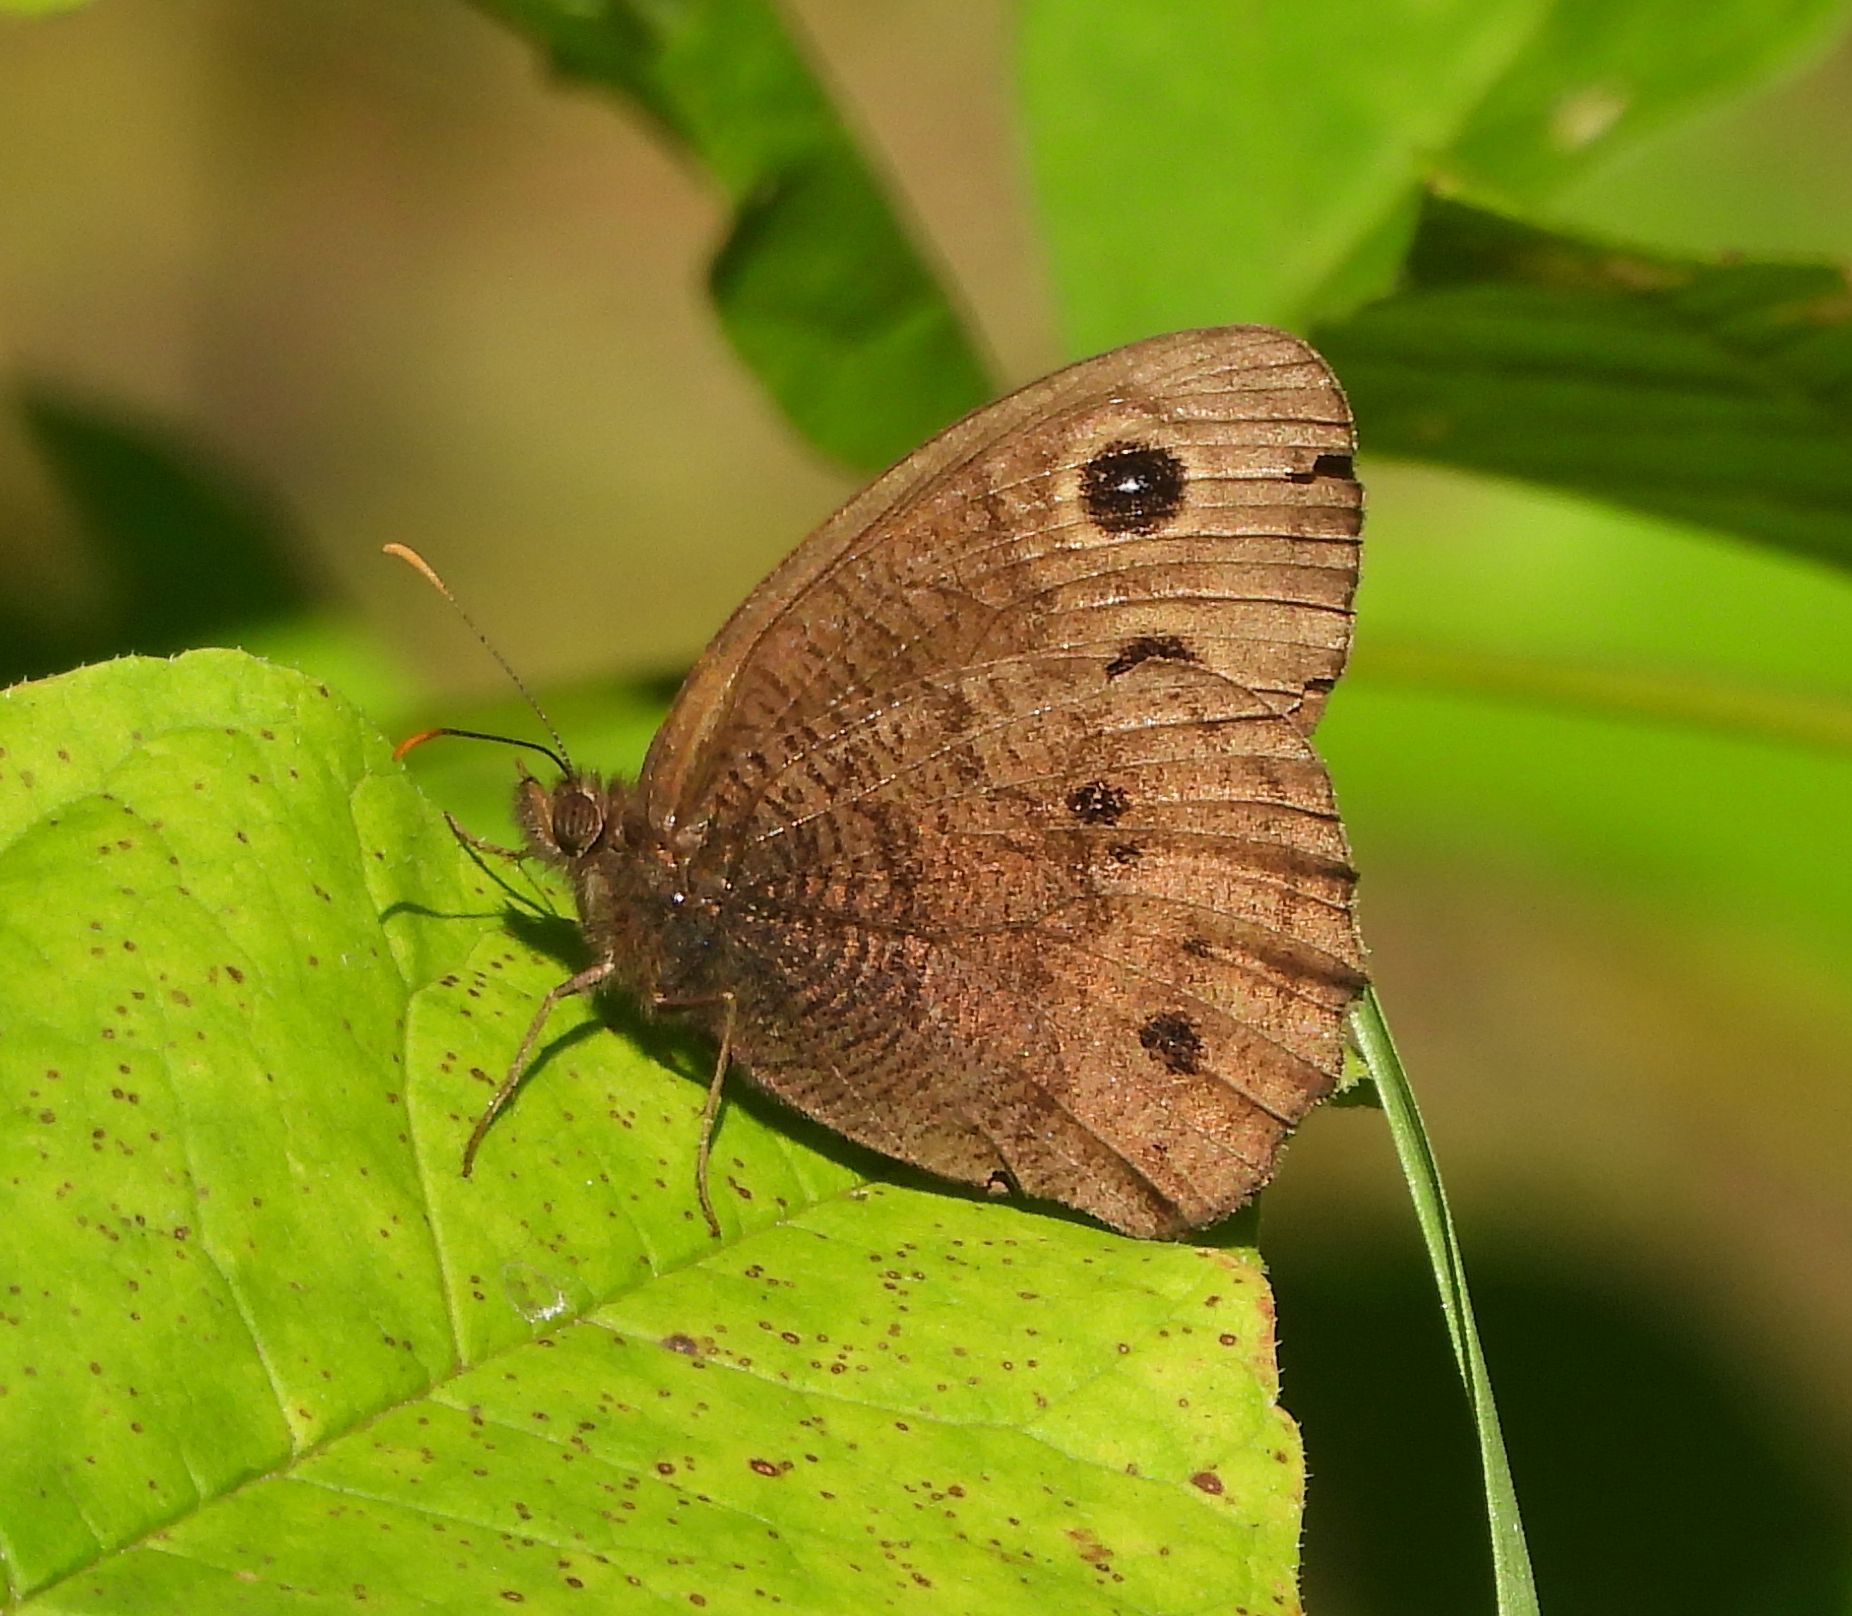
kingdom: Animalia
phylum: Arthropoda
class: Insecta
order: Lepidoptera
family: Nymphalidae
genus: Cercyonis
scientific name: Cercyonis pegala
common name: Common wood-nymph
